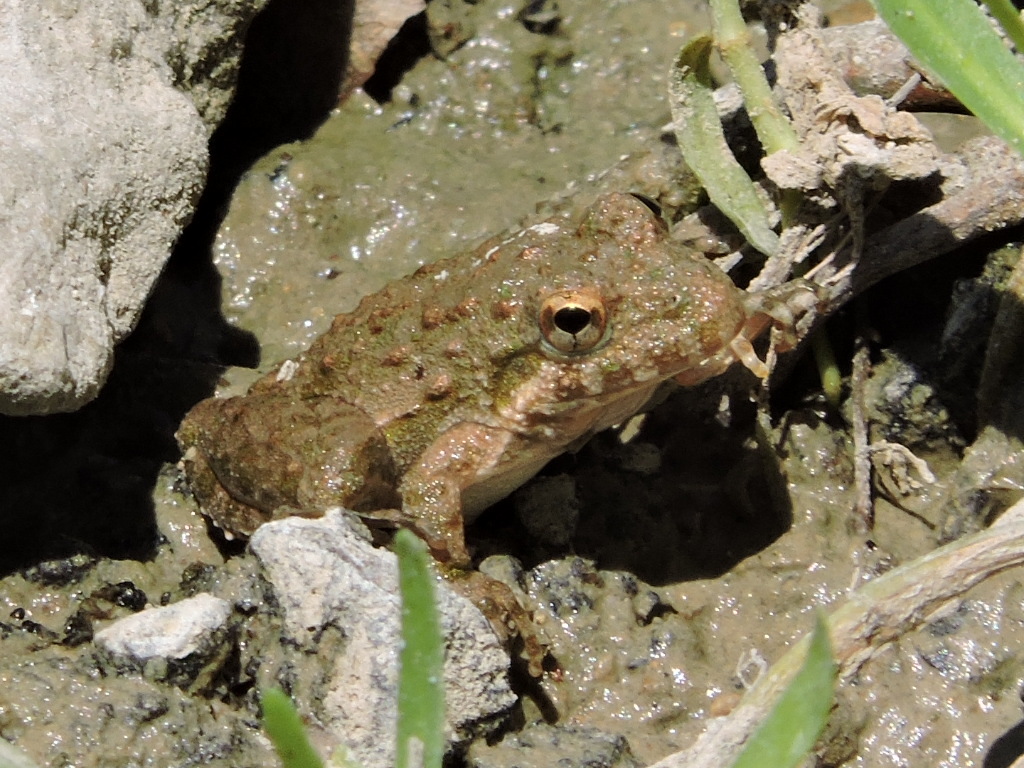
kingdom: Animalia
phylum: Chordata
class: Amphibia
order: Anura
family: Hylidae
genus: Acris
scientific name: Acris blanchardi
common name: Blanchard's cricket frog
